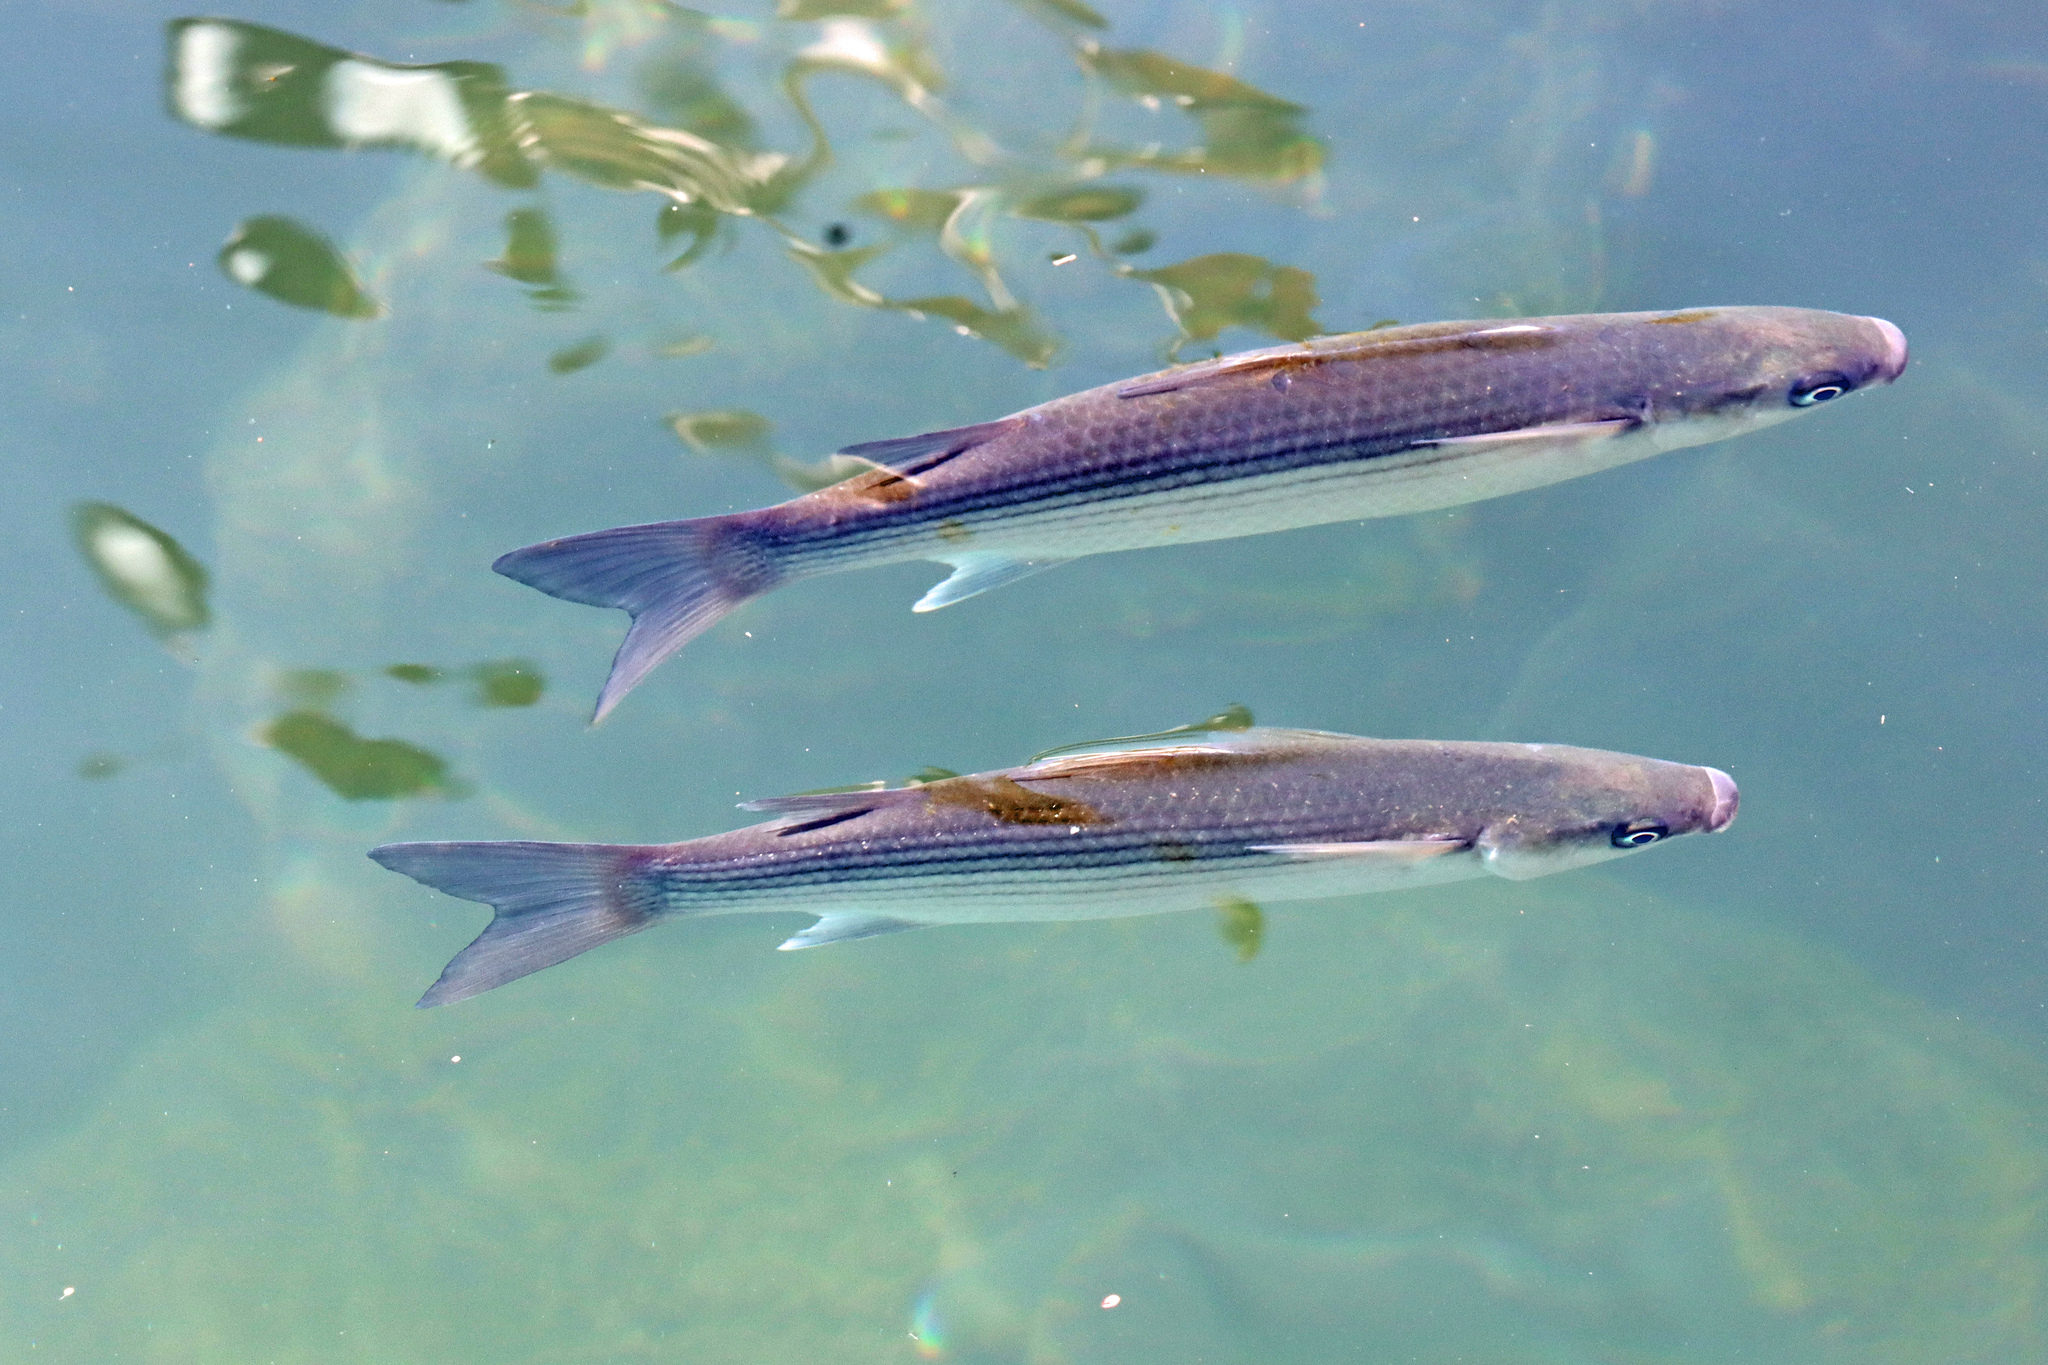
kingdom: Animalia
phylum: Chordata
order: Mugiliformes
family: Mugilidae
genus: Chelon
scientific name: Chelon labrosus
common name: Thick-lipped mullet
